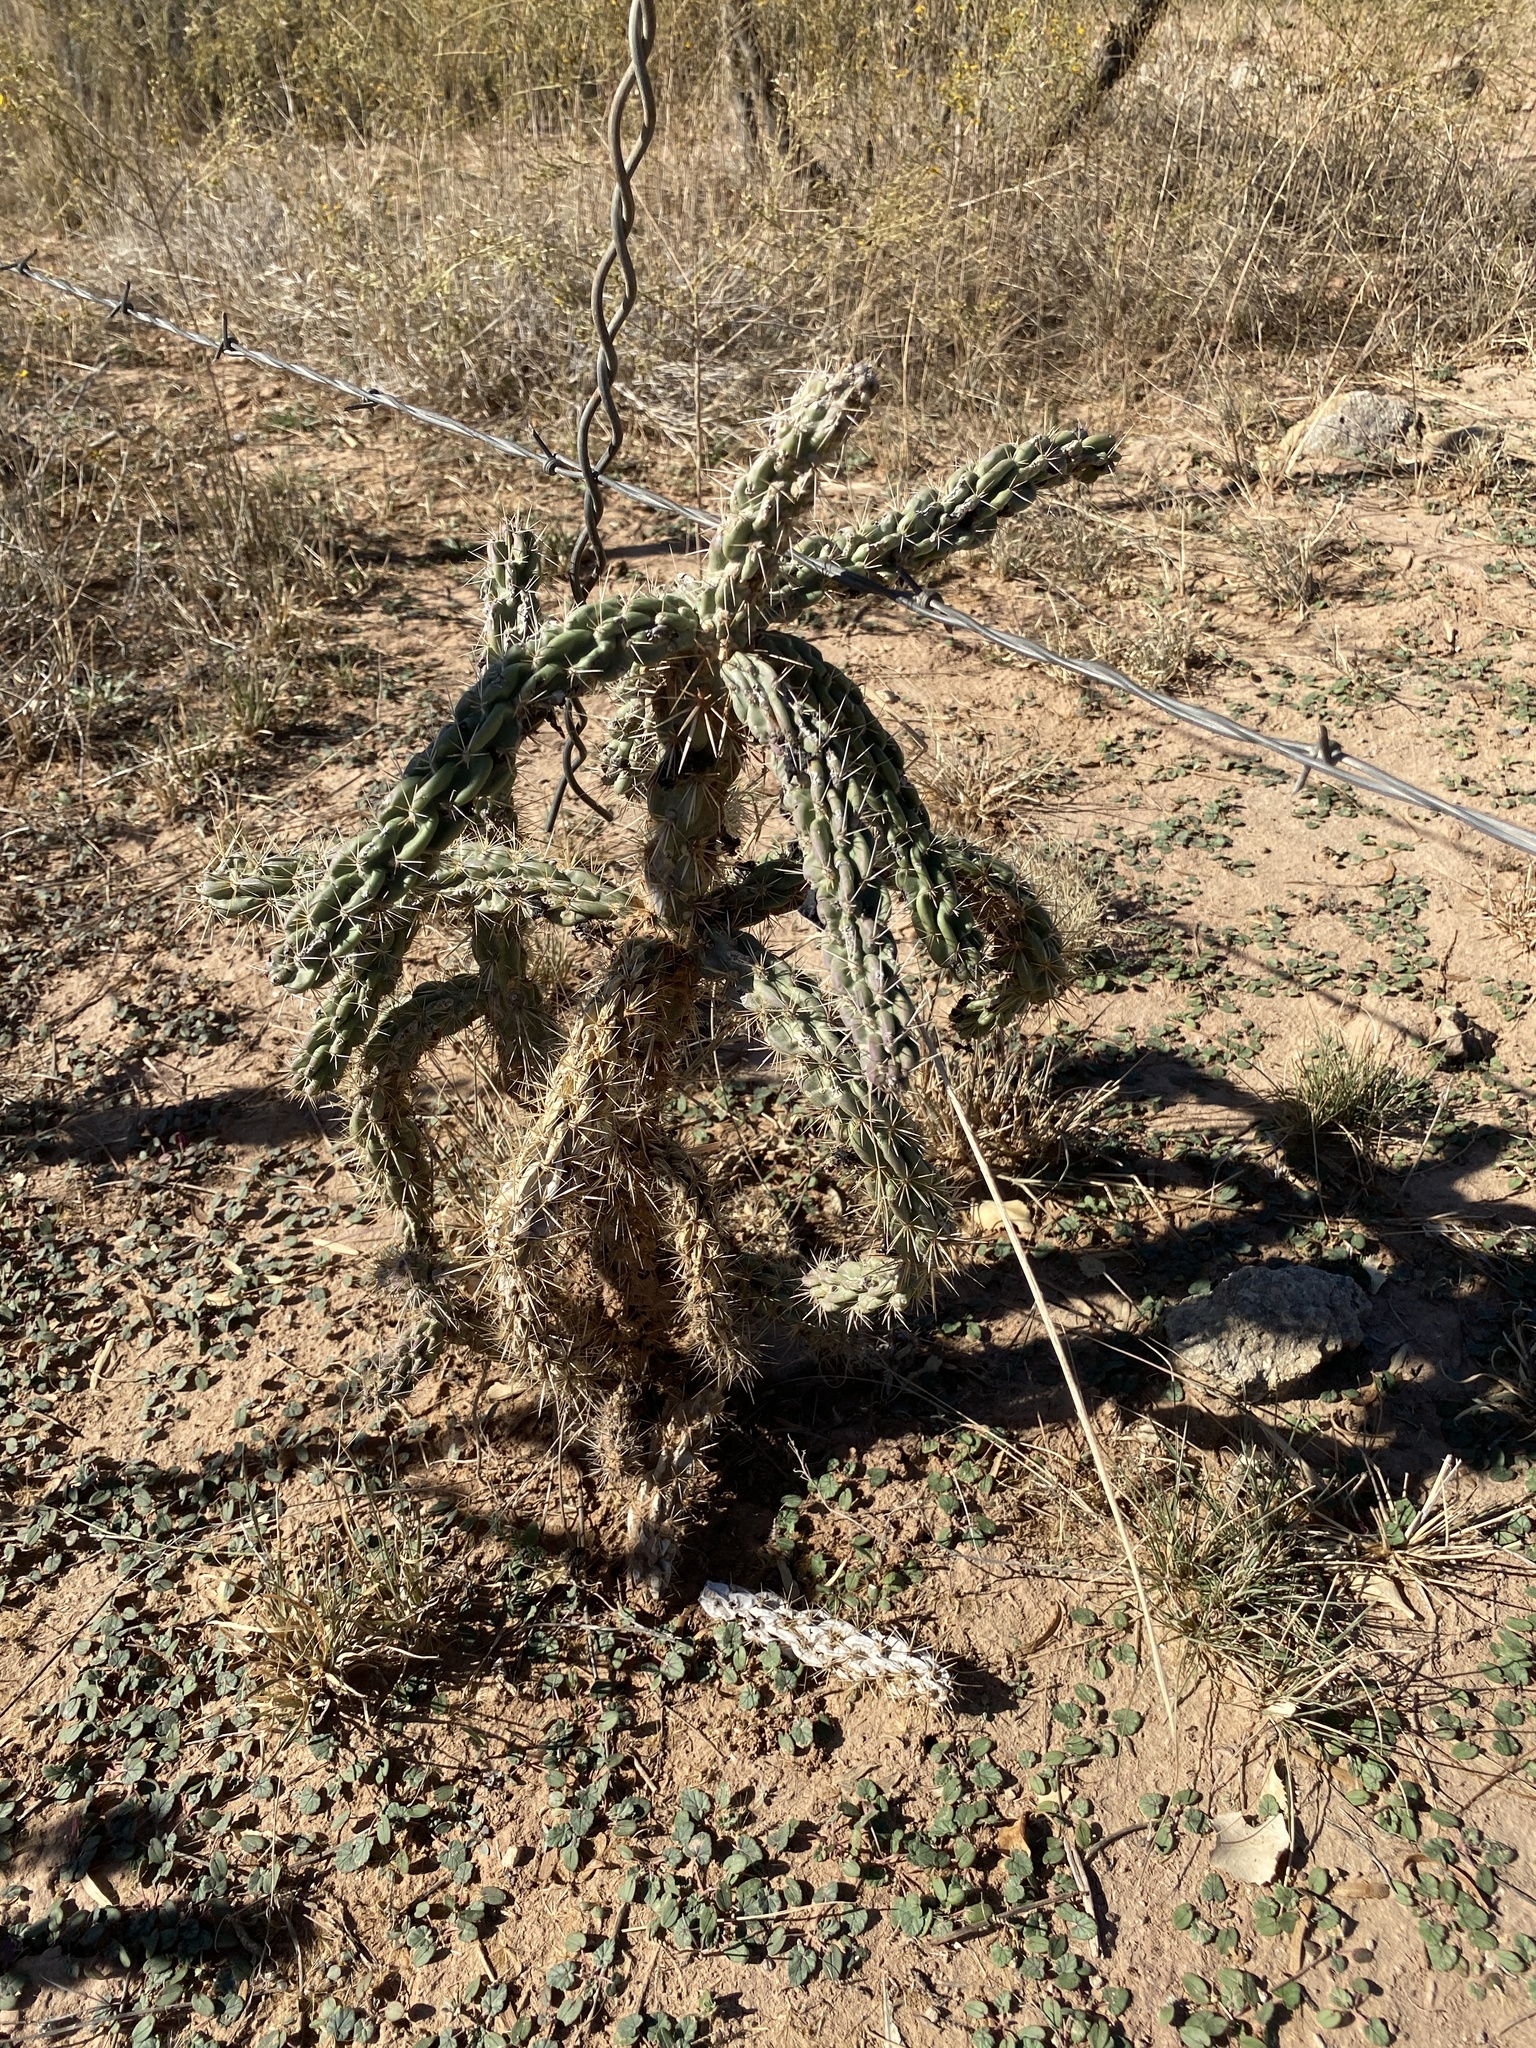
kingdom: Plantae
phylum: Tracheophyta
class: Magnoliopsida
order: Caryophyllales
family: Cactaceae
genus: Cylindropuntia
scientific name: Cylindropuntia imbricata
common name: Candelabrum cactus
